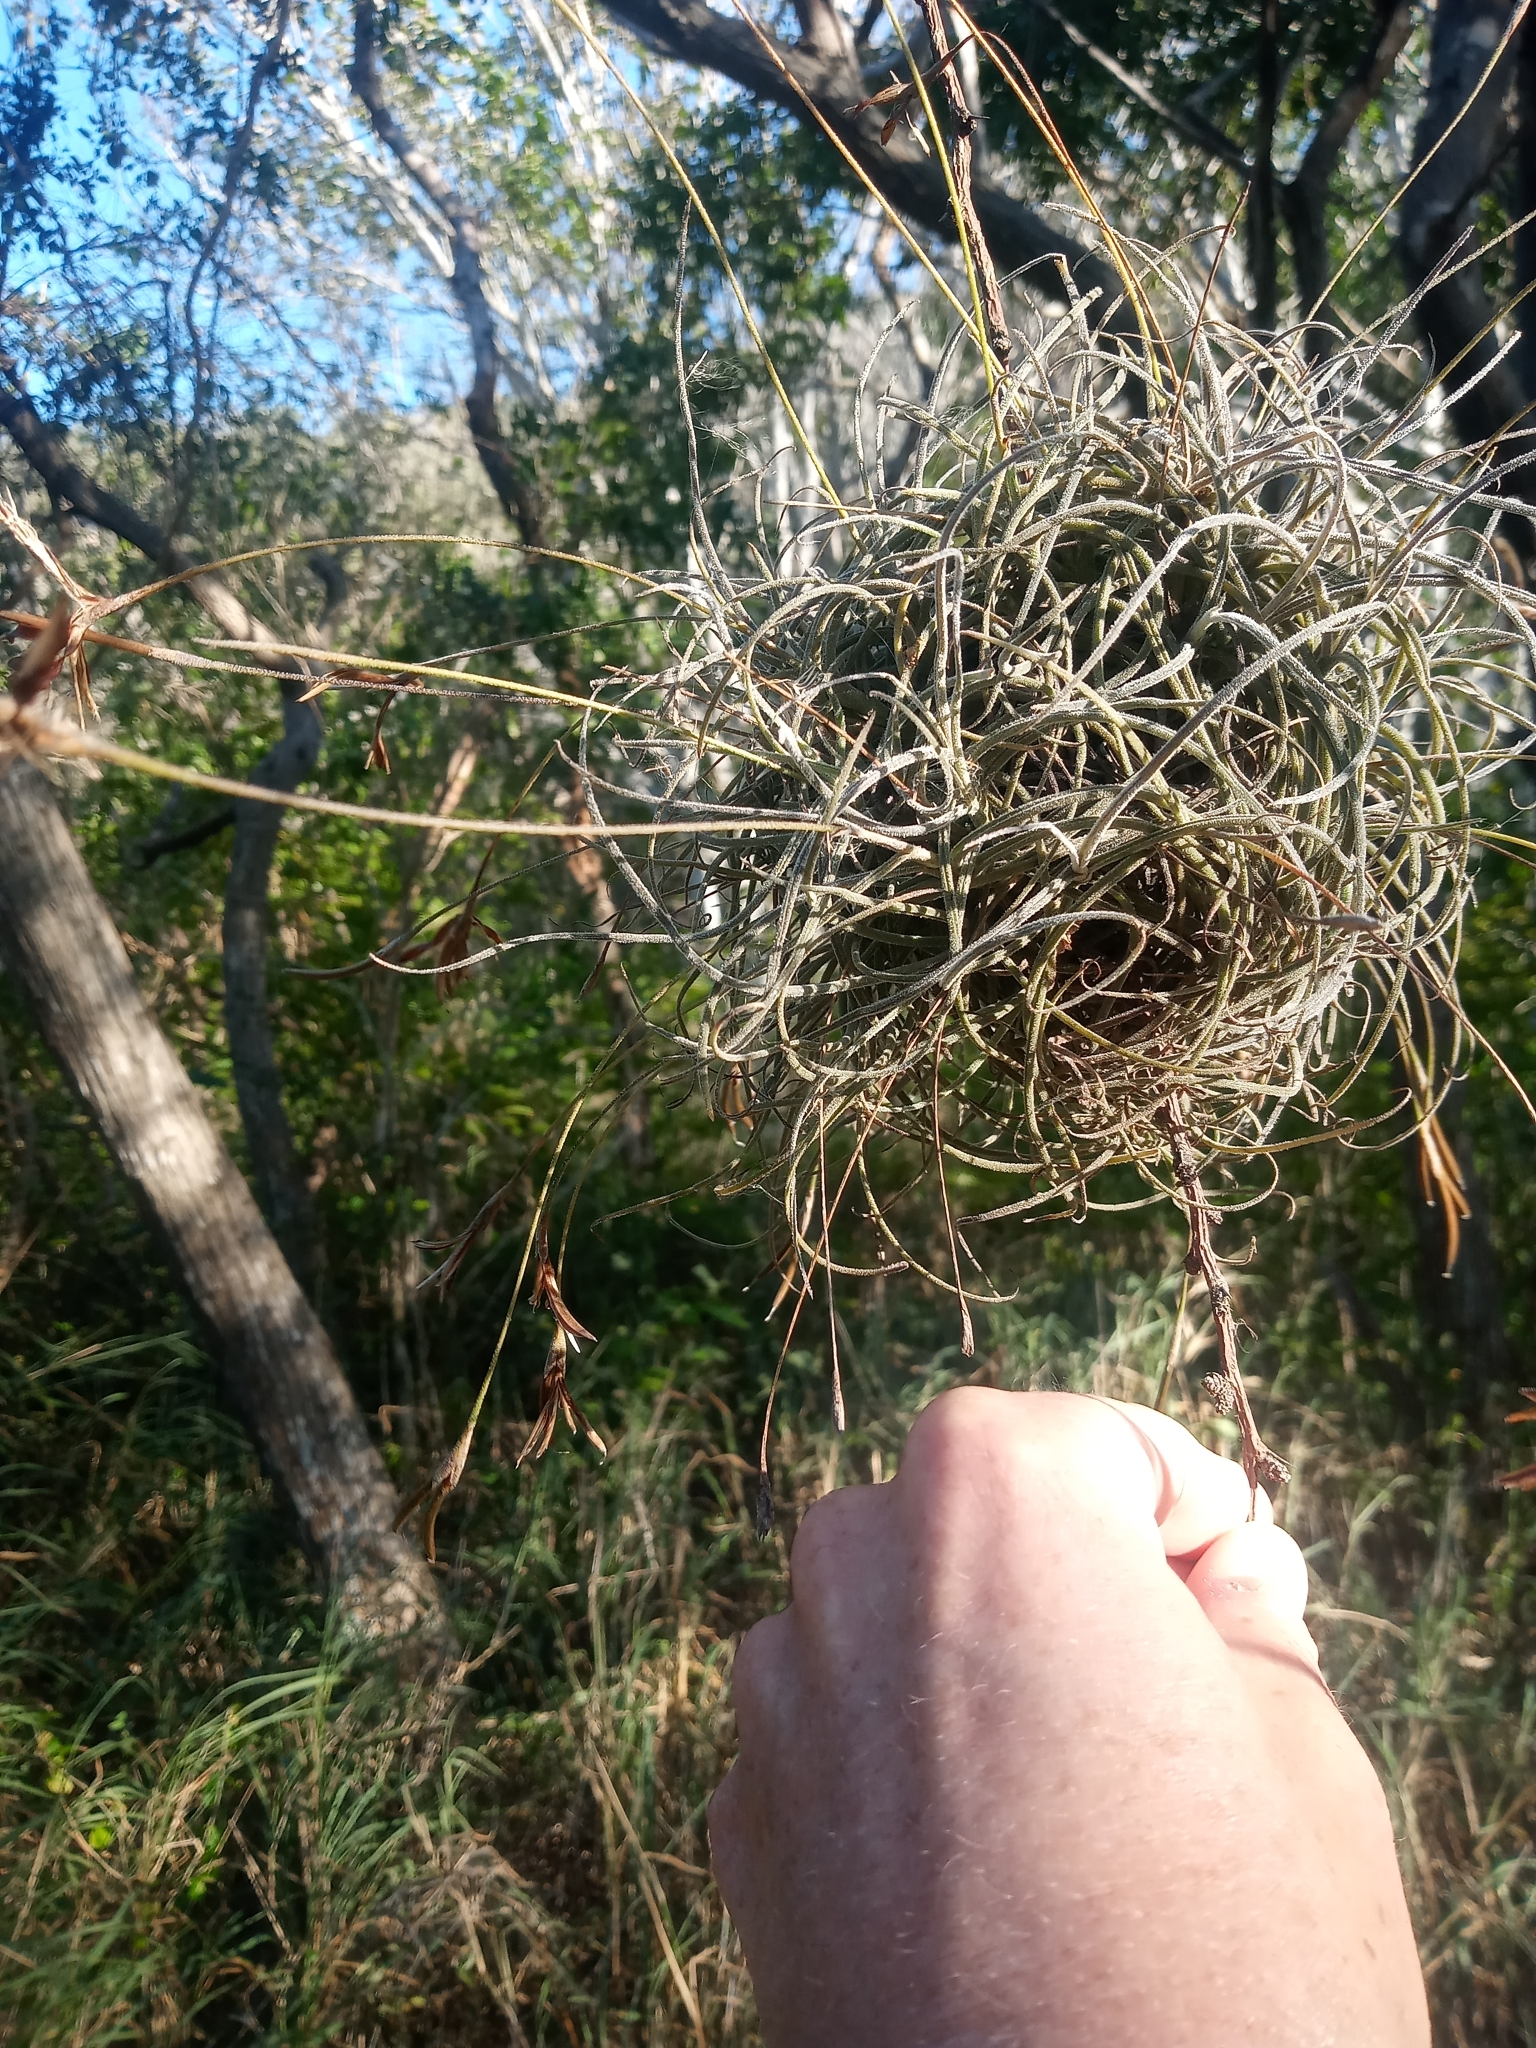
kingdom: Plantae
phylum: Tracheophyta
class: Liliopsida
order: Poales
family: Bromeliaceae
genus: Tillandsia
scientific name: Tillandsia recurvata
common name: Small ballmoss
